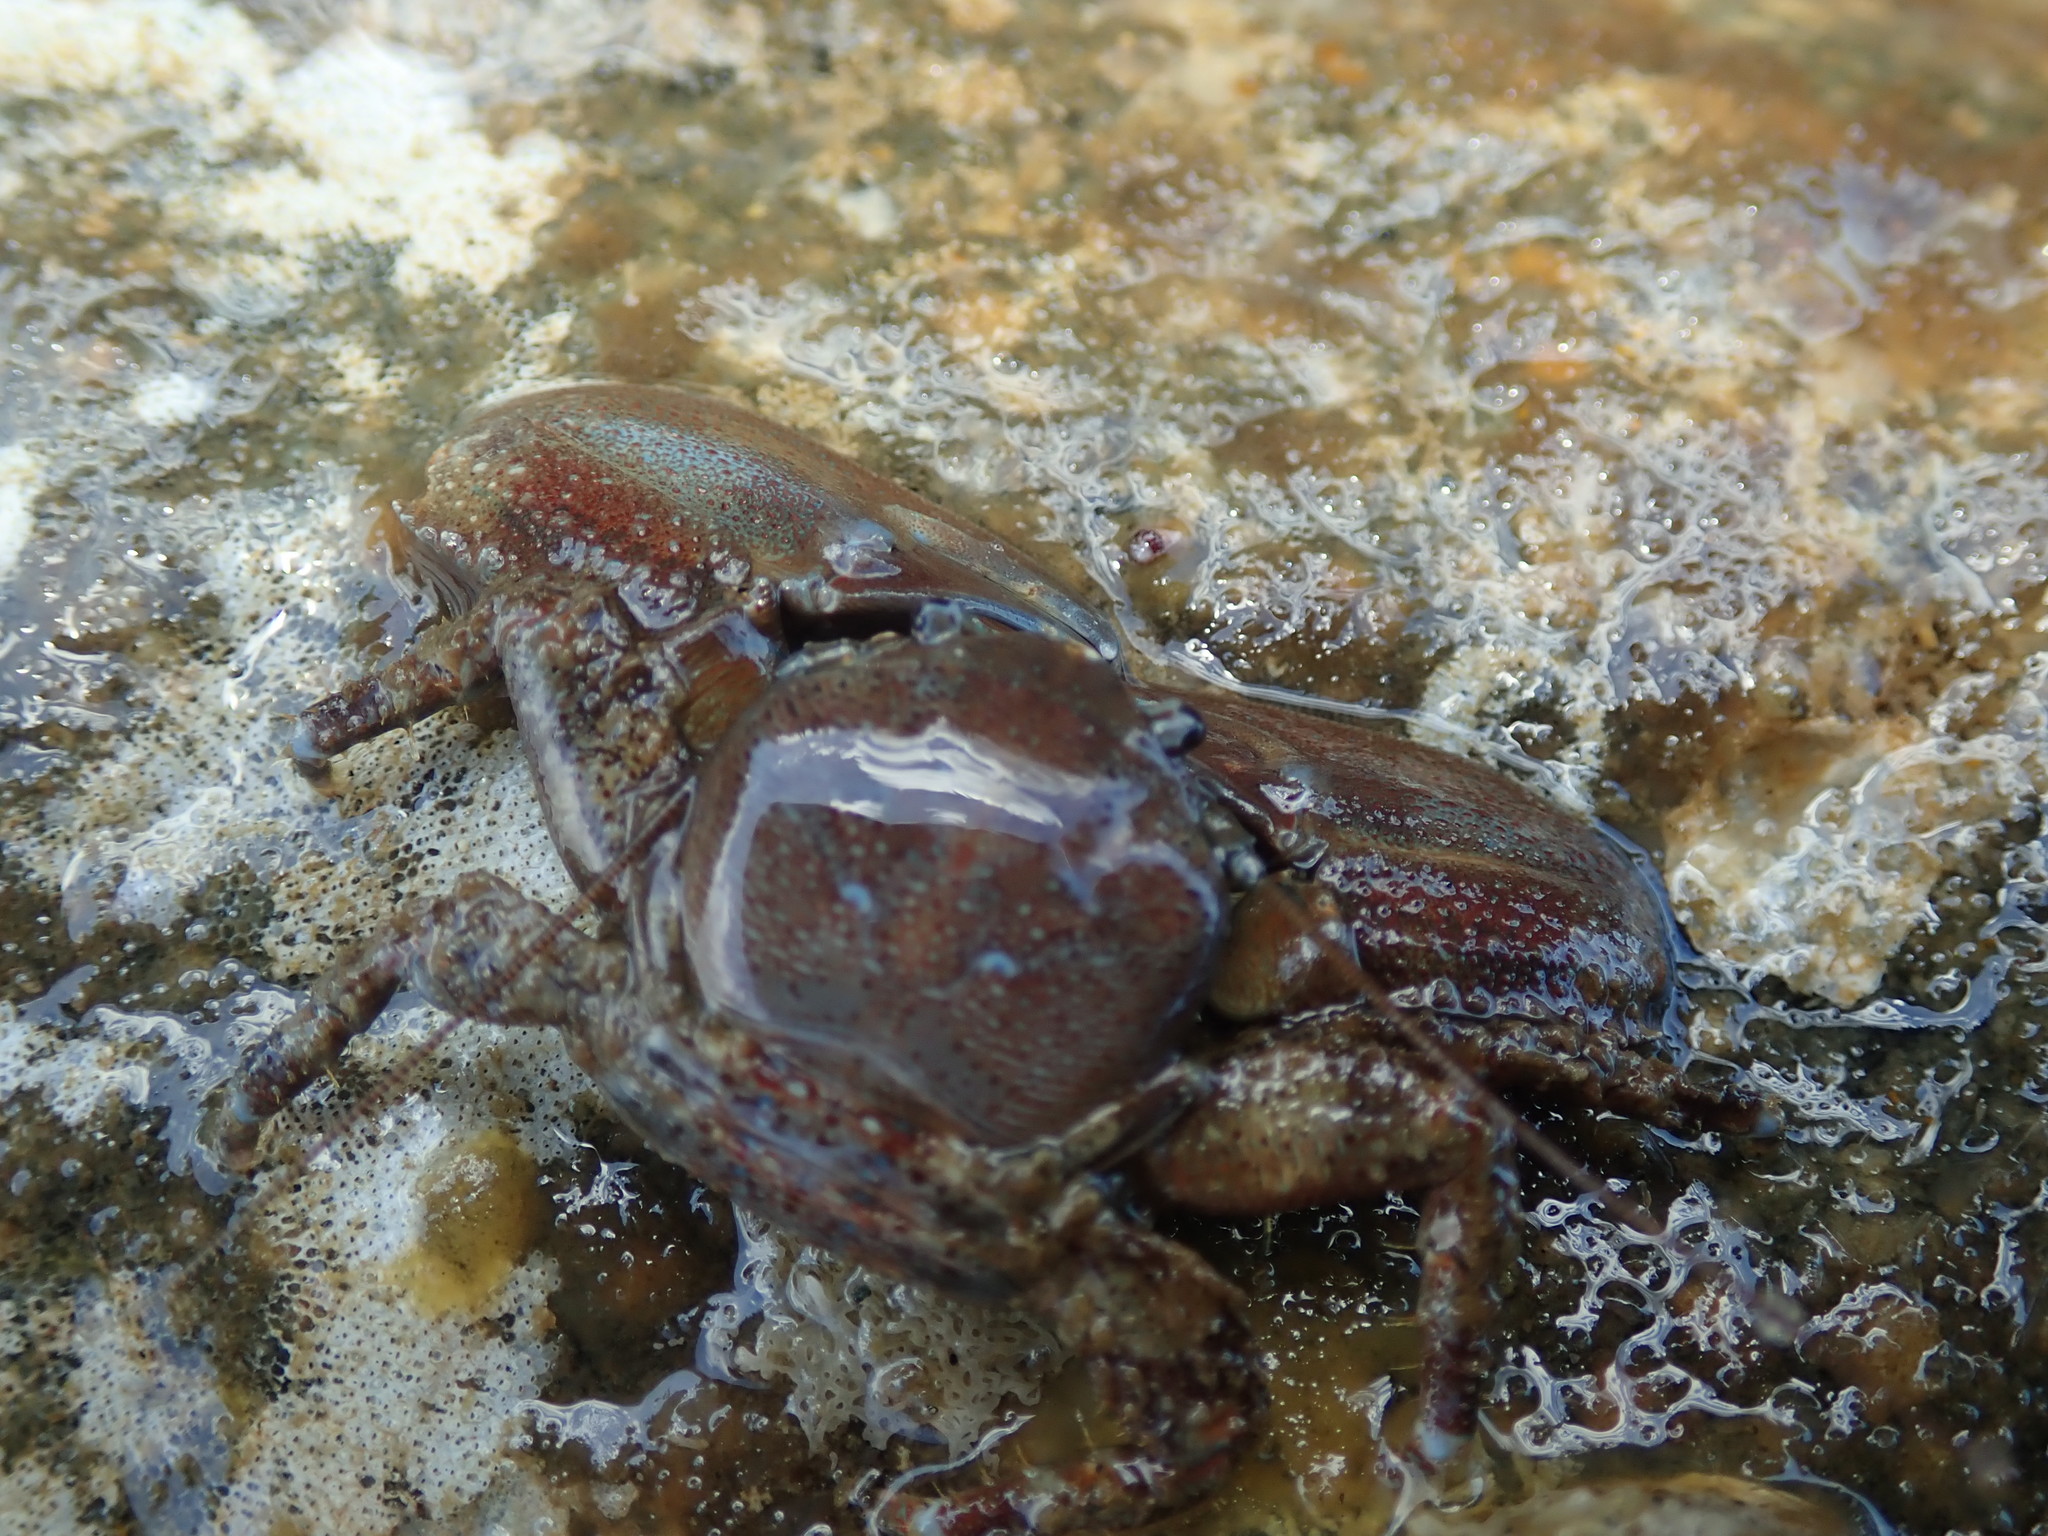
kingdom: Animalia
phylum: Arthropoda
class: Malacostraca
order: Decapoda
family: Porcellanidae
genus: Petrolisthes
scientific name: Petrolisthes eriomerus
